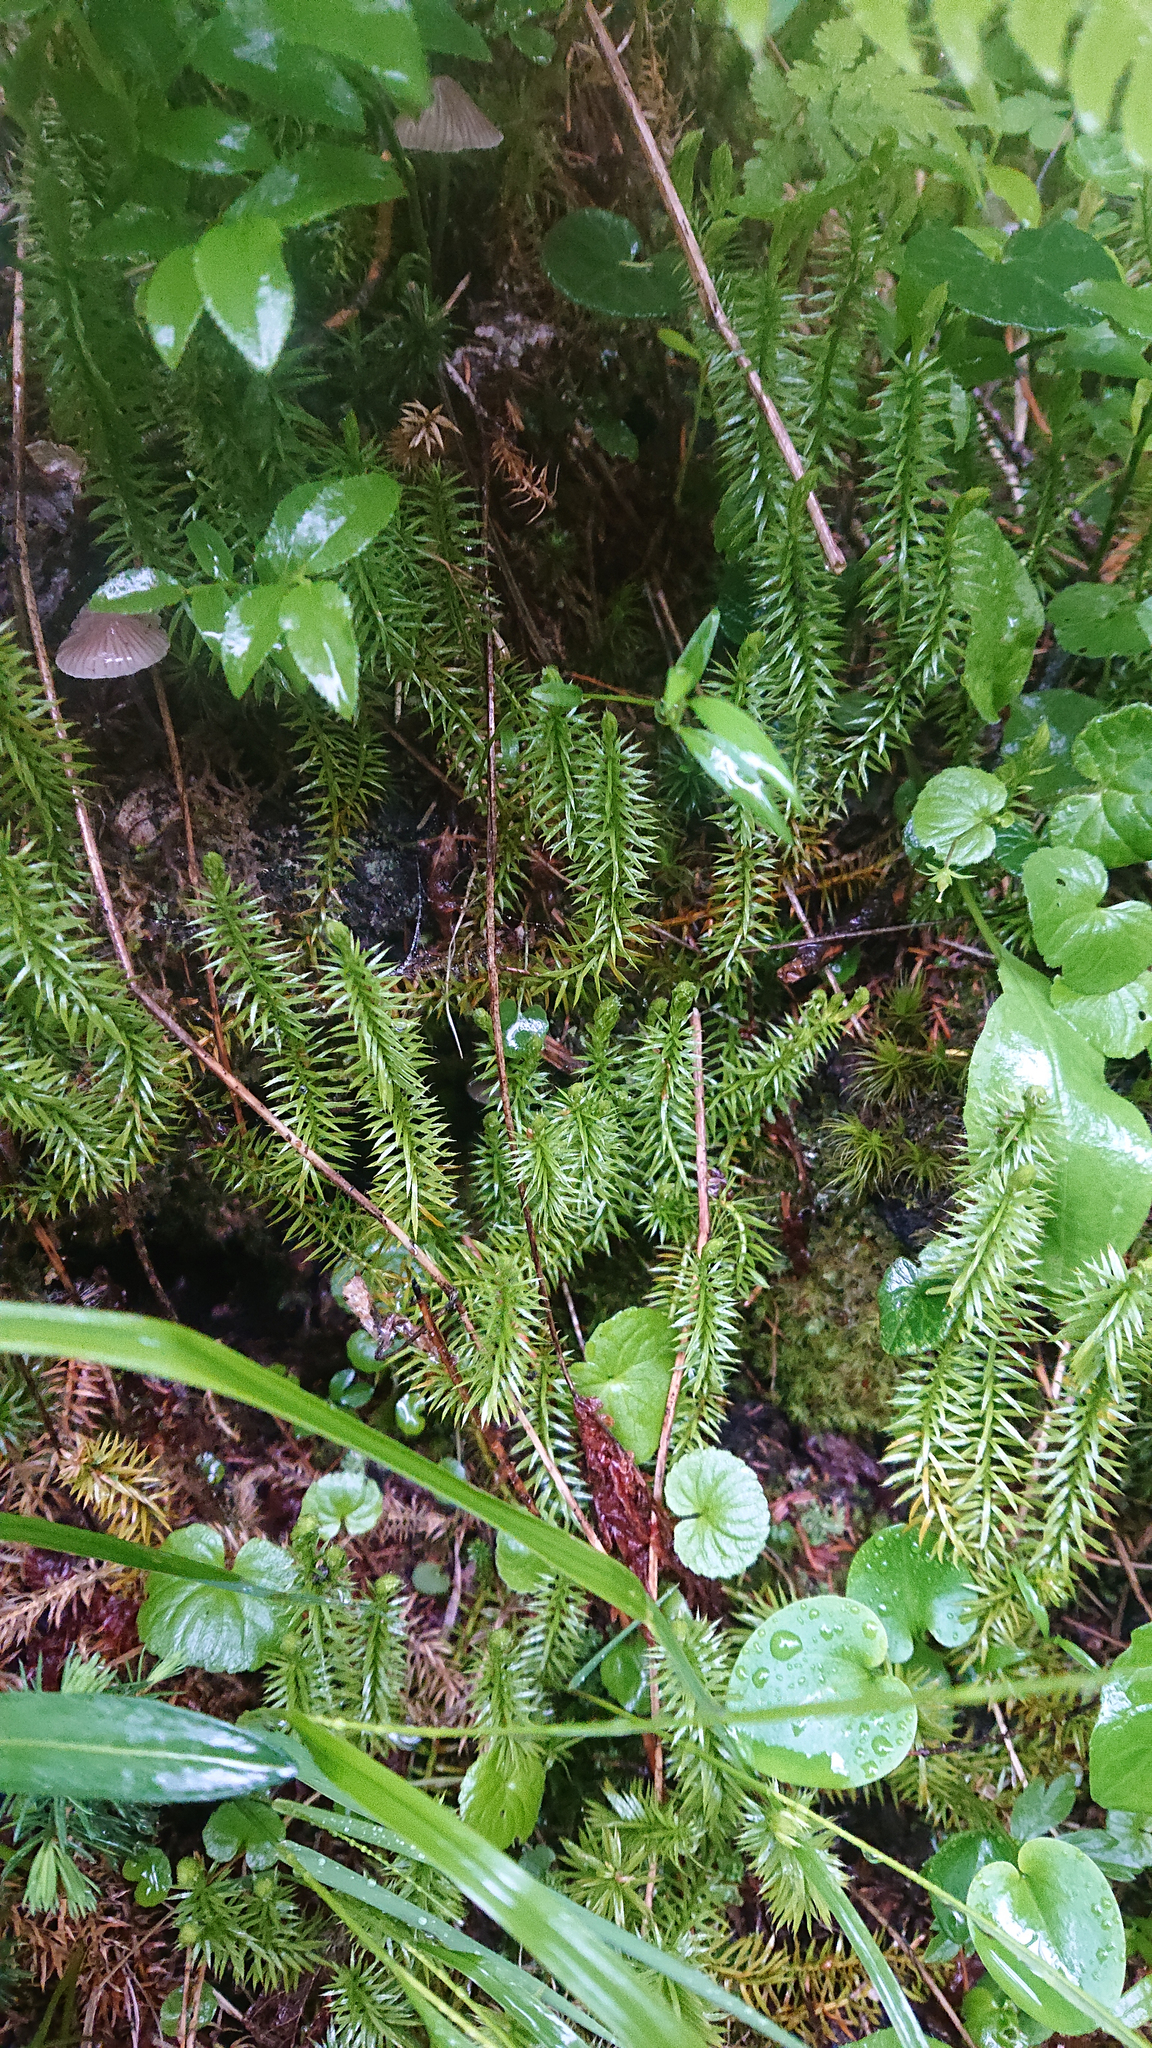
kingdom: Plantae
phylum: Tracheophyta
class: Lycopodiopsida
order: Lycopodiales
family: Lycopodiaceae
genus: Spinulum
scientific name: Spinulum annotinum
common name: Interrupted club-moss
